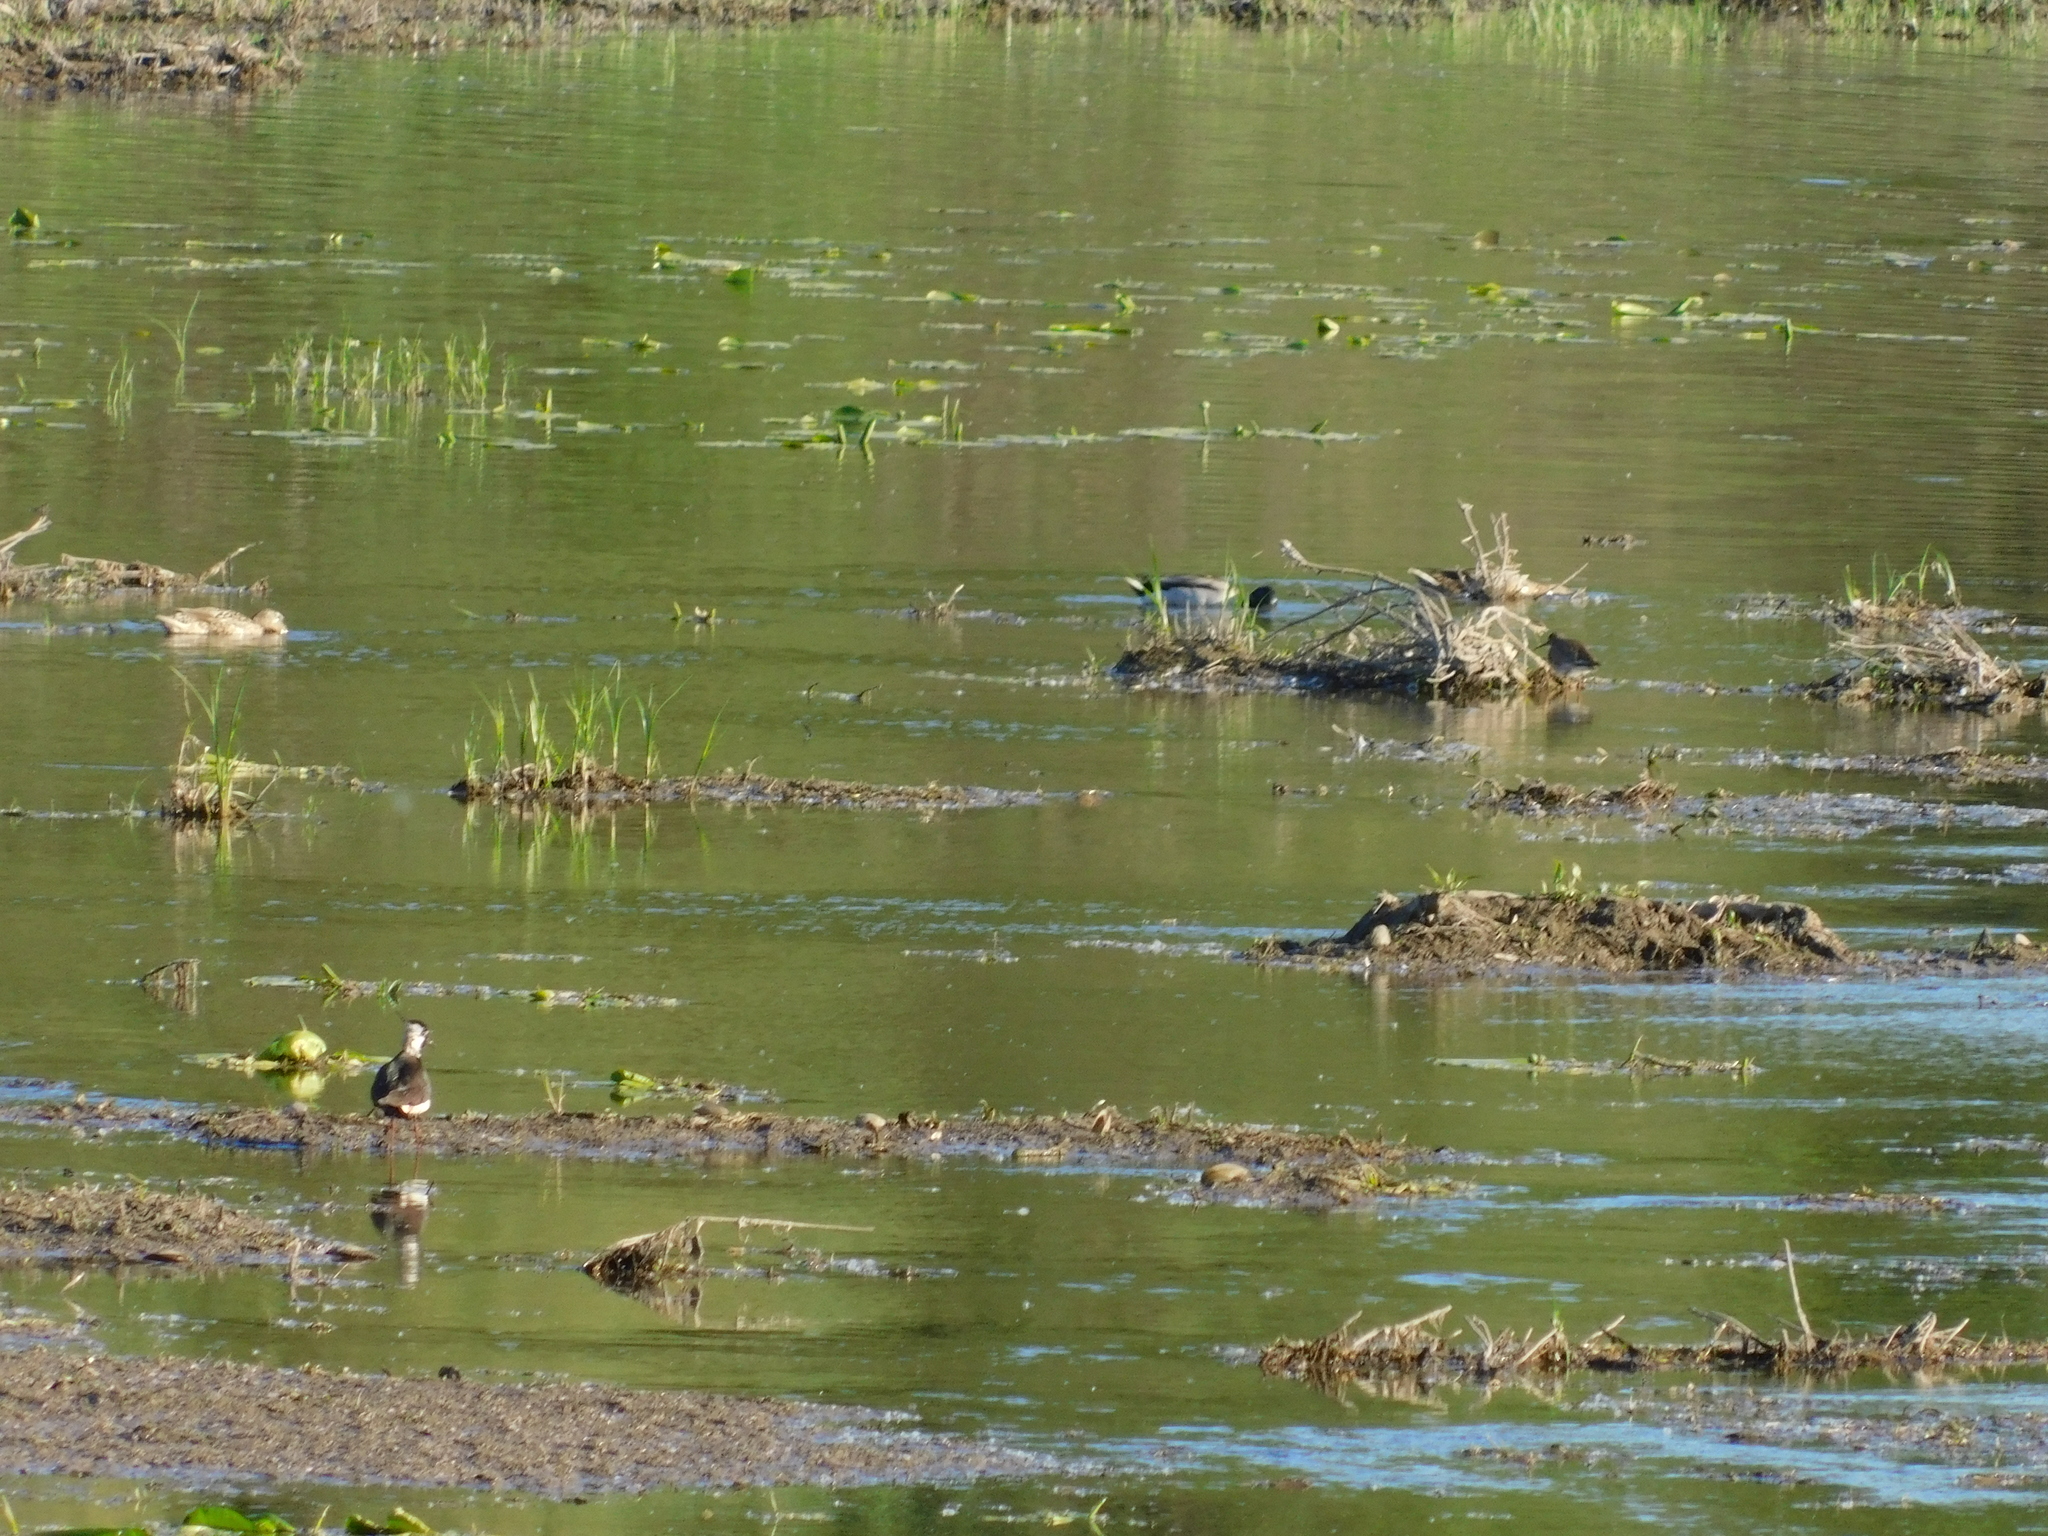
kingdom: Animalia
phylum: Chordata
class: Aves
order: Charadriiformes
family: Charadriidae
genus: Vanellus
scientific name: Vanellus vanellus
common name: Northern lapwing
